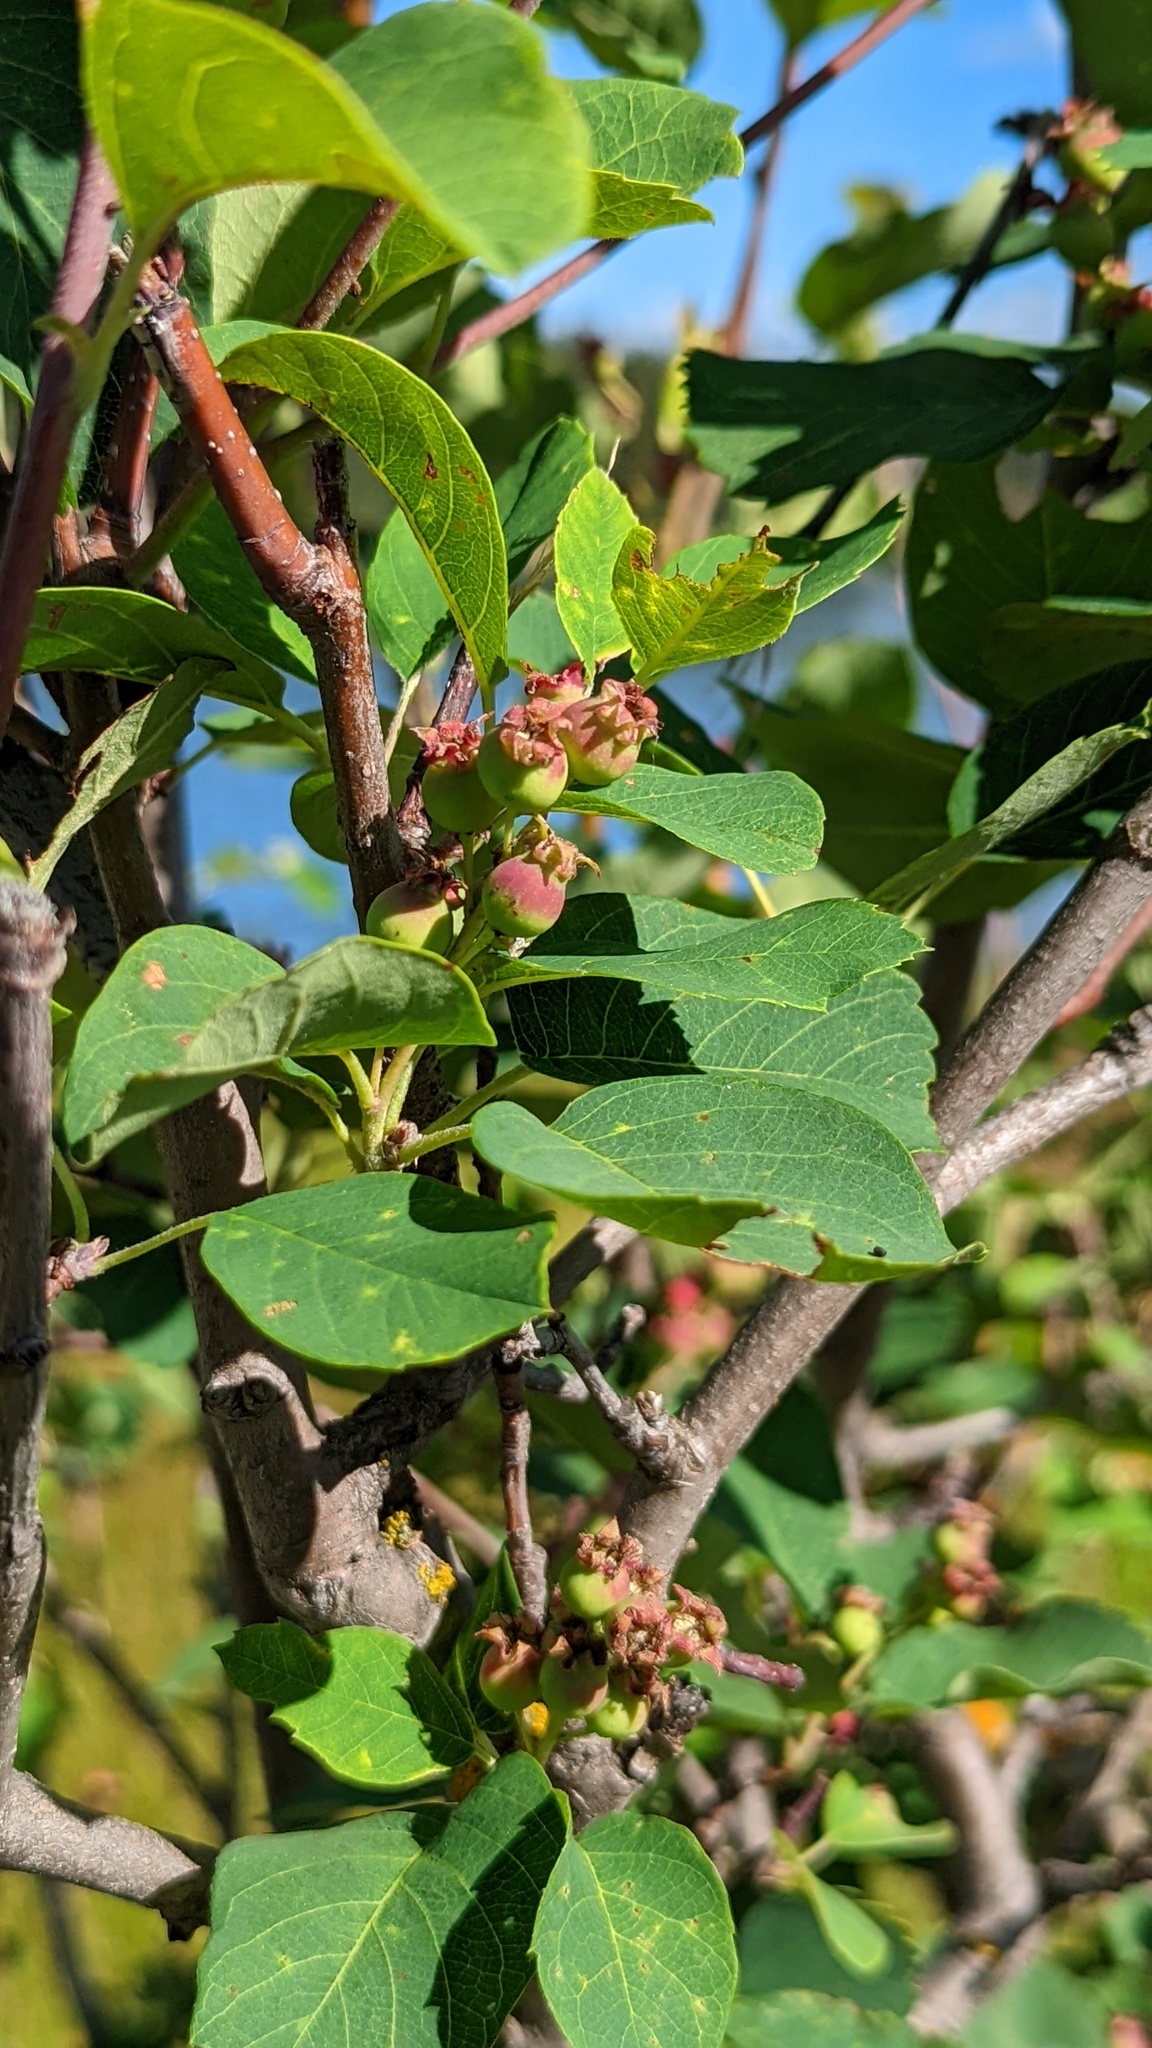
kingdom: Plantae
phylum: Tracheophyta
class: Magnoliopsida
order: Rosales
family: Rosaceae
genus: Amelanchier
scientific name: Amelanchier alnifolia
